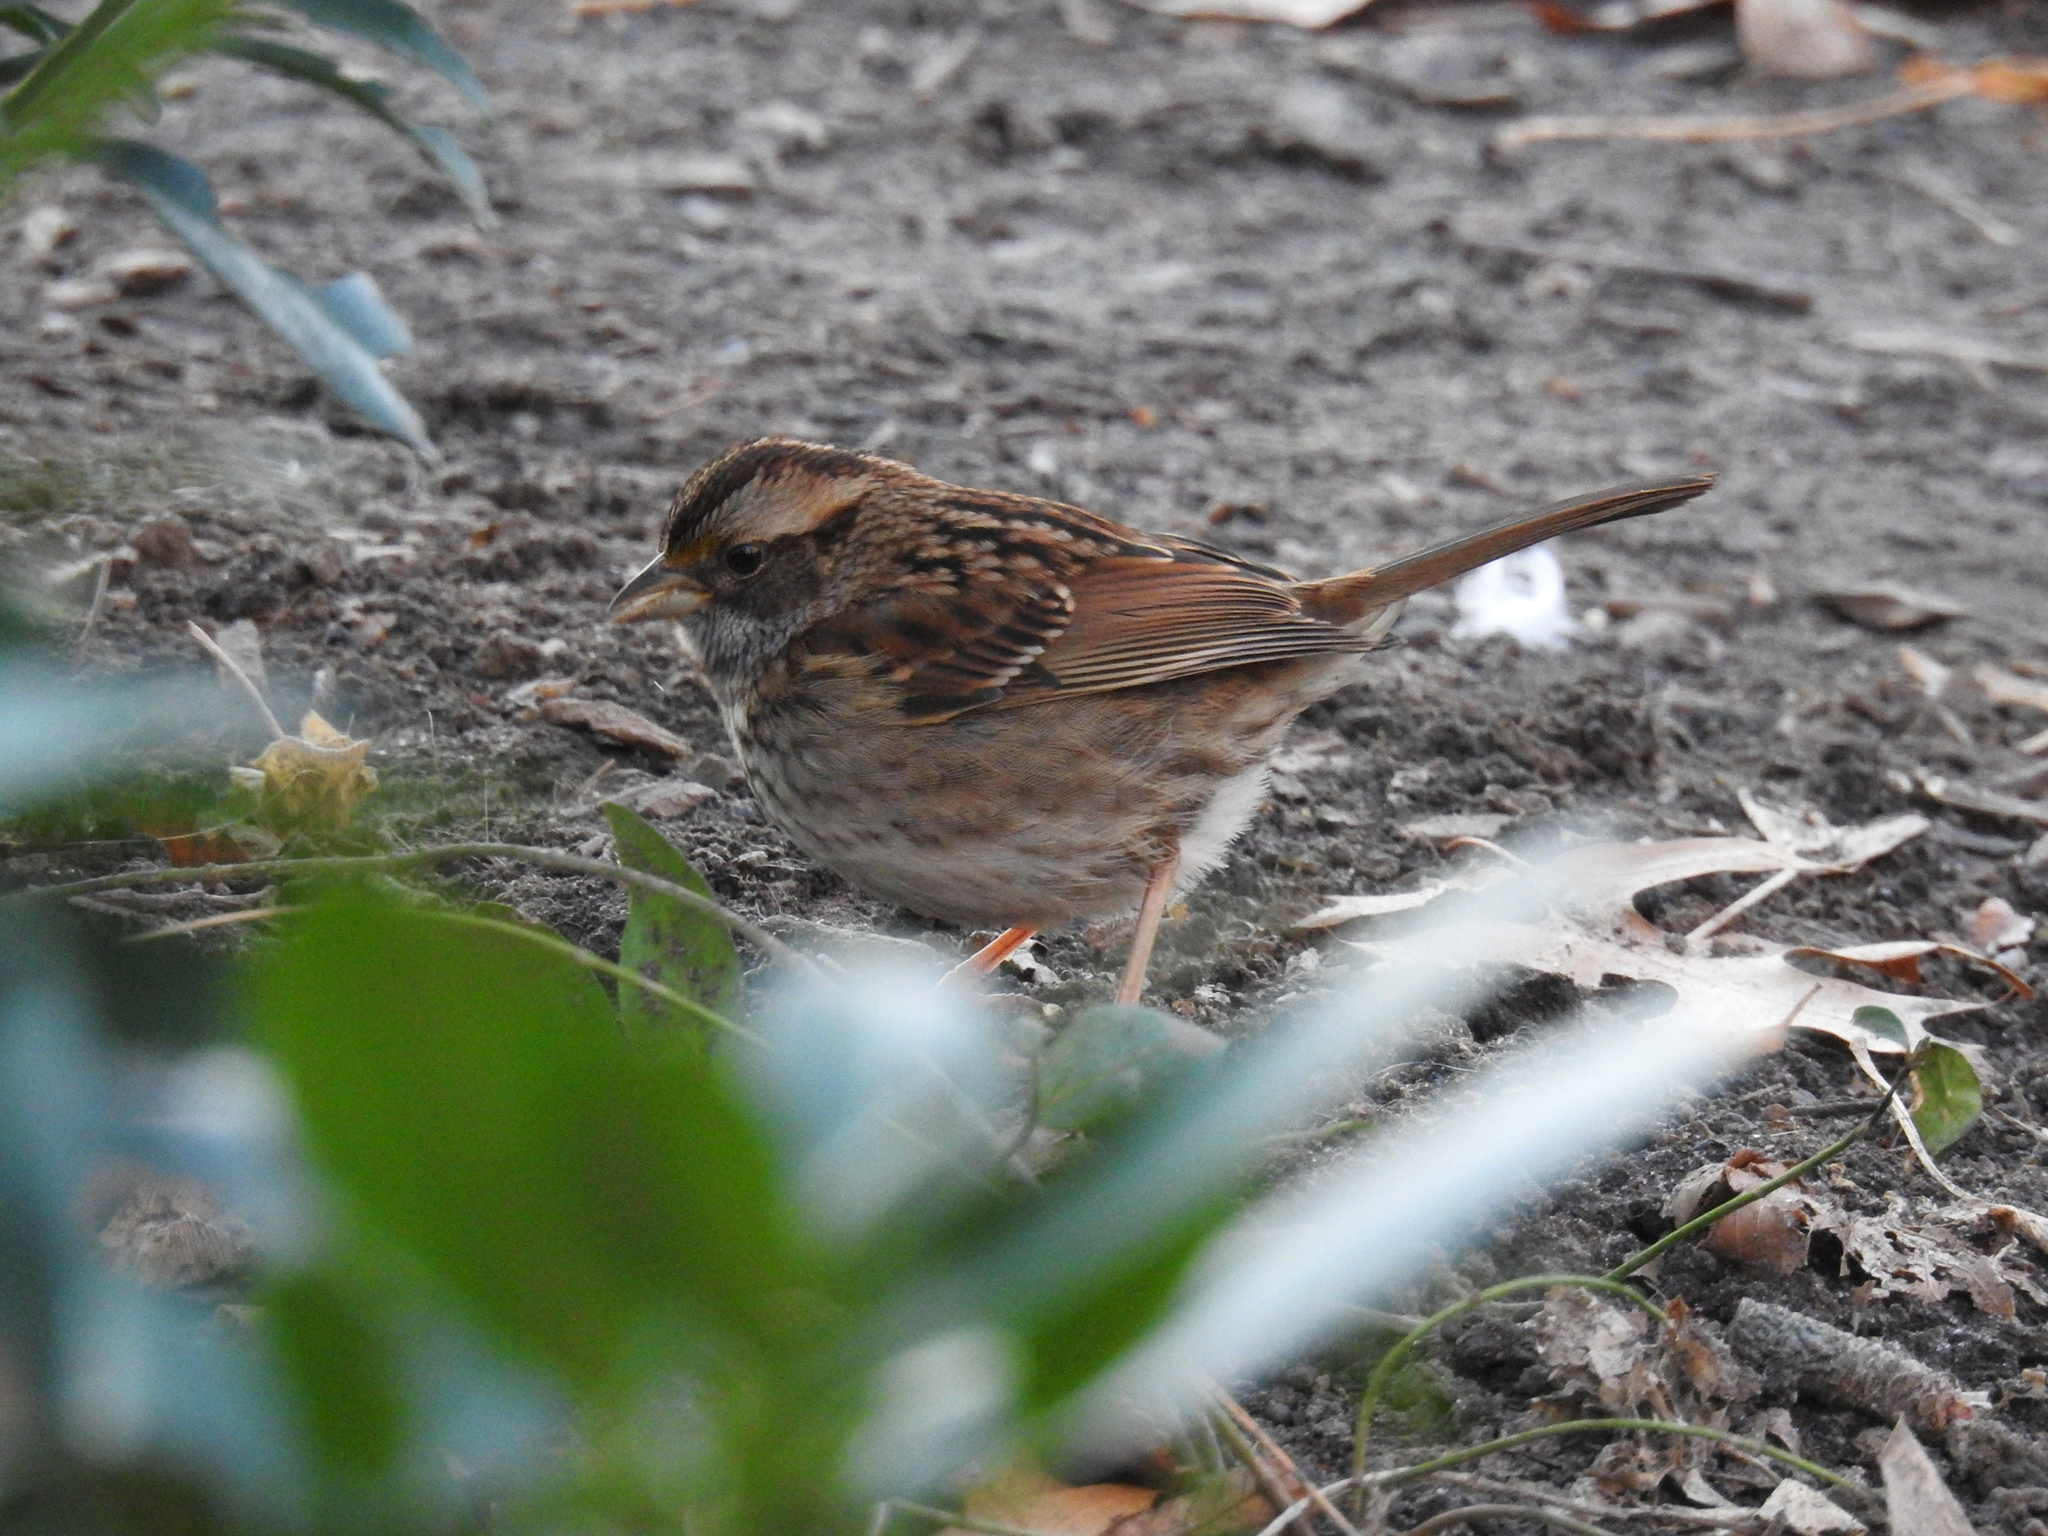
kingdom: Animalia
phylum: Chordata
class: Aves
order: Passeriformes
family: Passerellidae
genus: Zonotrichia
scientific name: Zonotrichia albicollis
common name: White-throated sparrow
